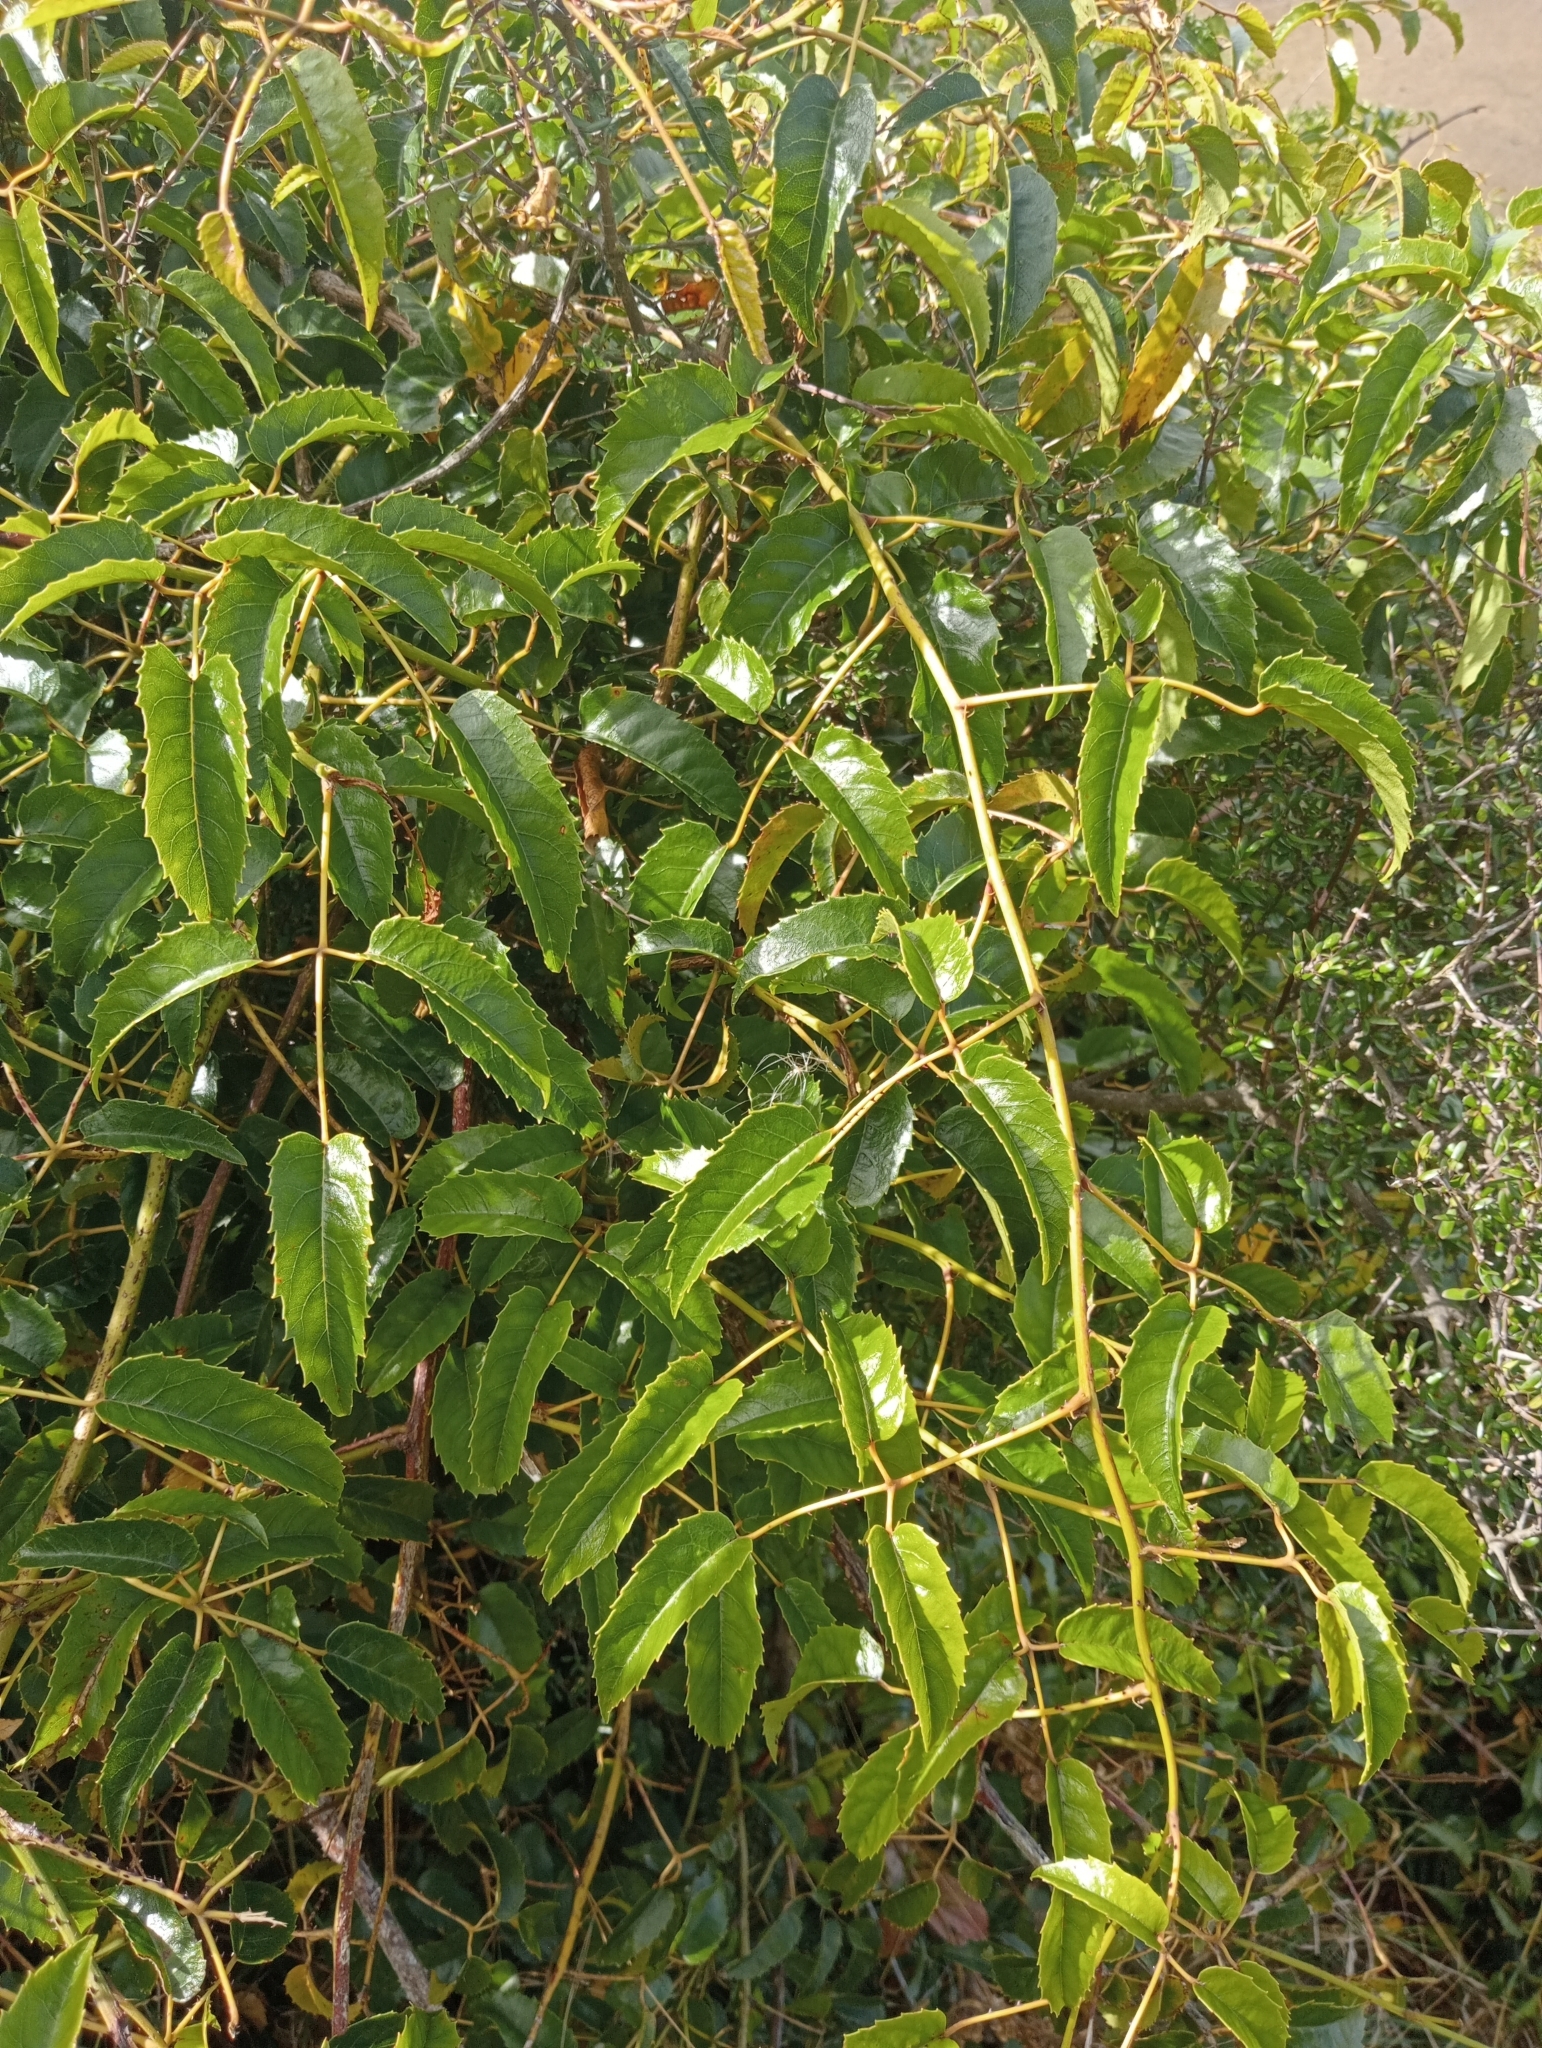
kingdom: Plantae
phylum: Tracheophyta
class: Magnoliopsida
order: Rosales
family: Rosaceae
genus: Rubus
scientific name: Rubus cissoides
